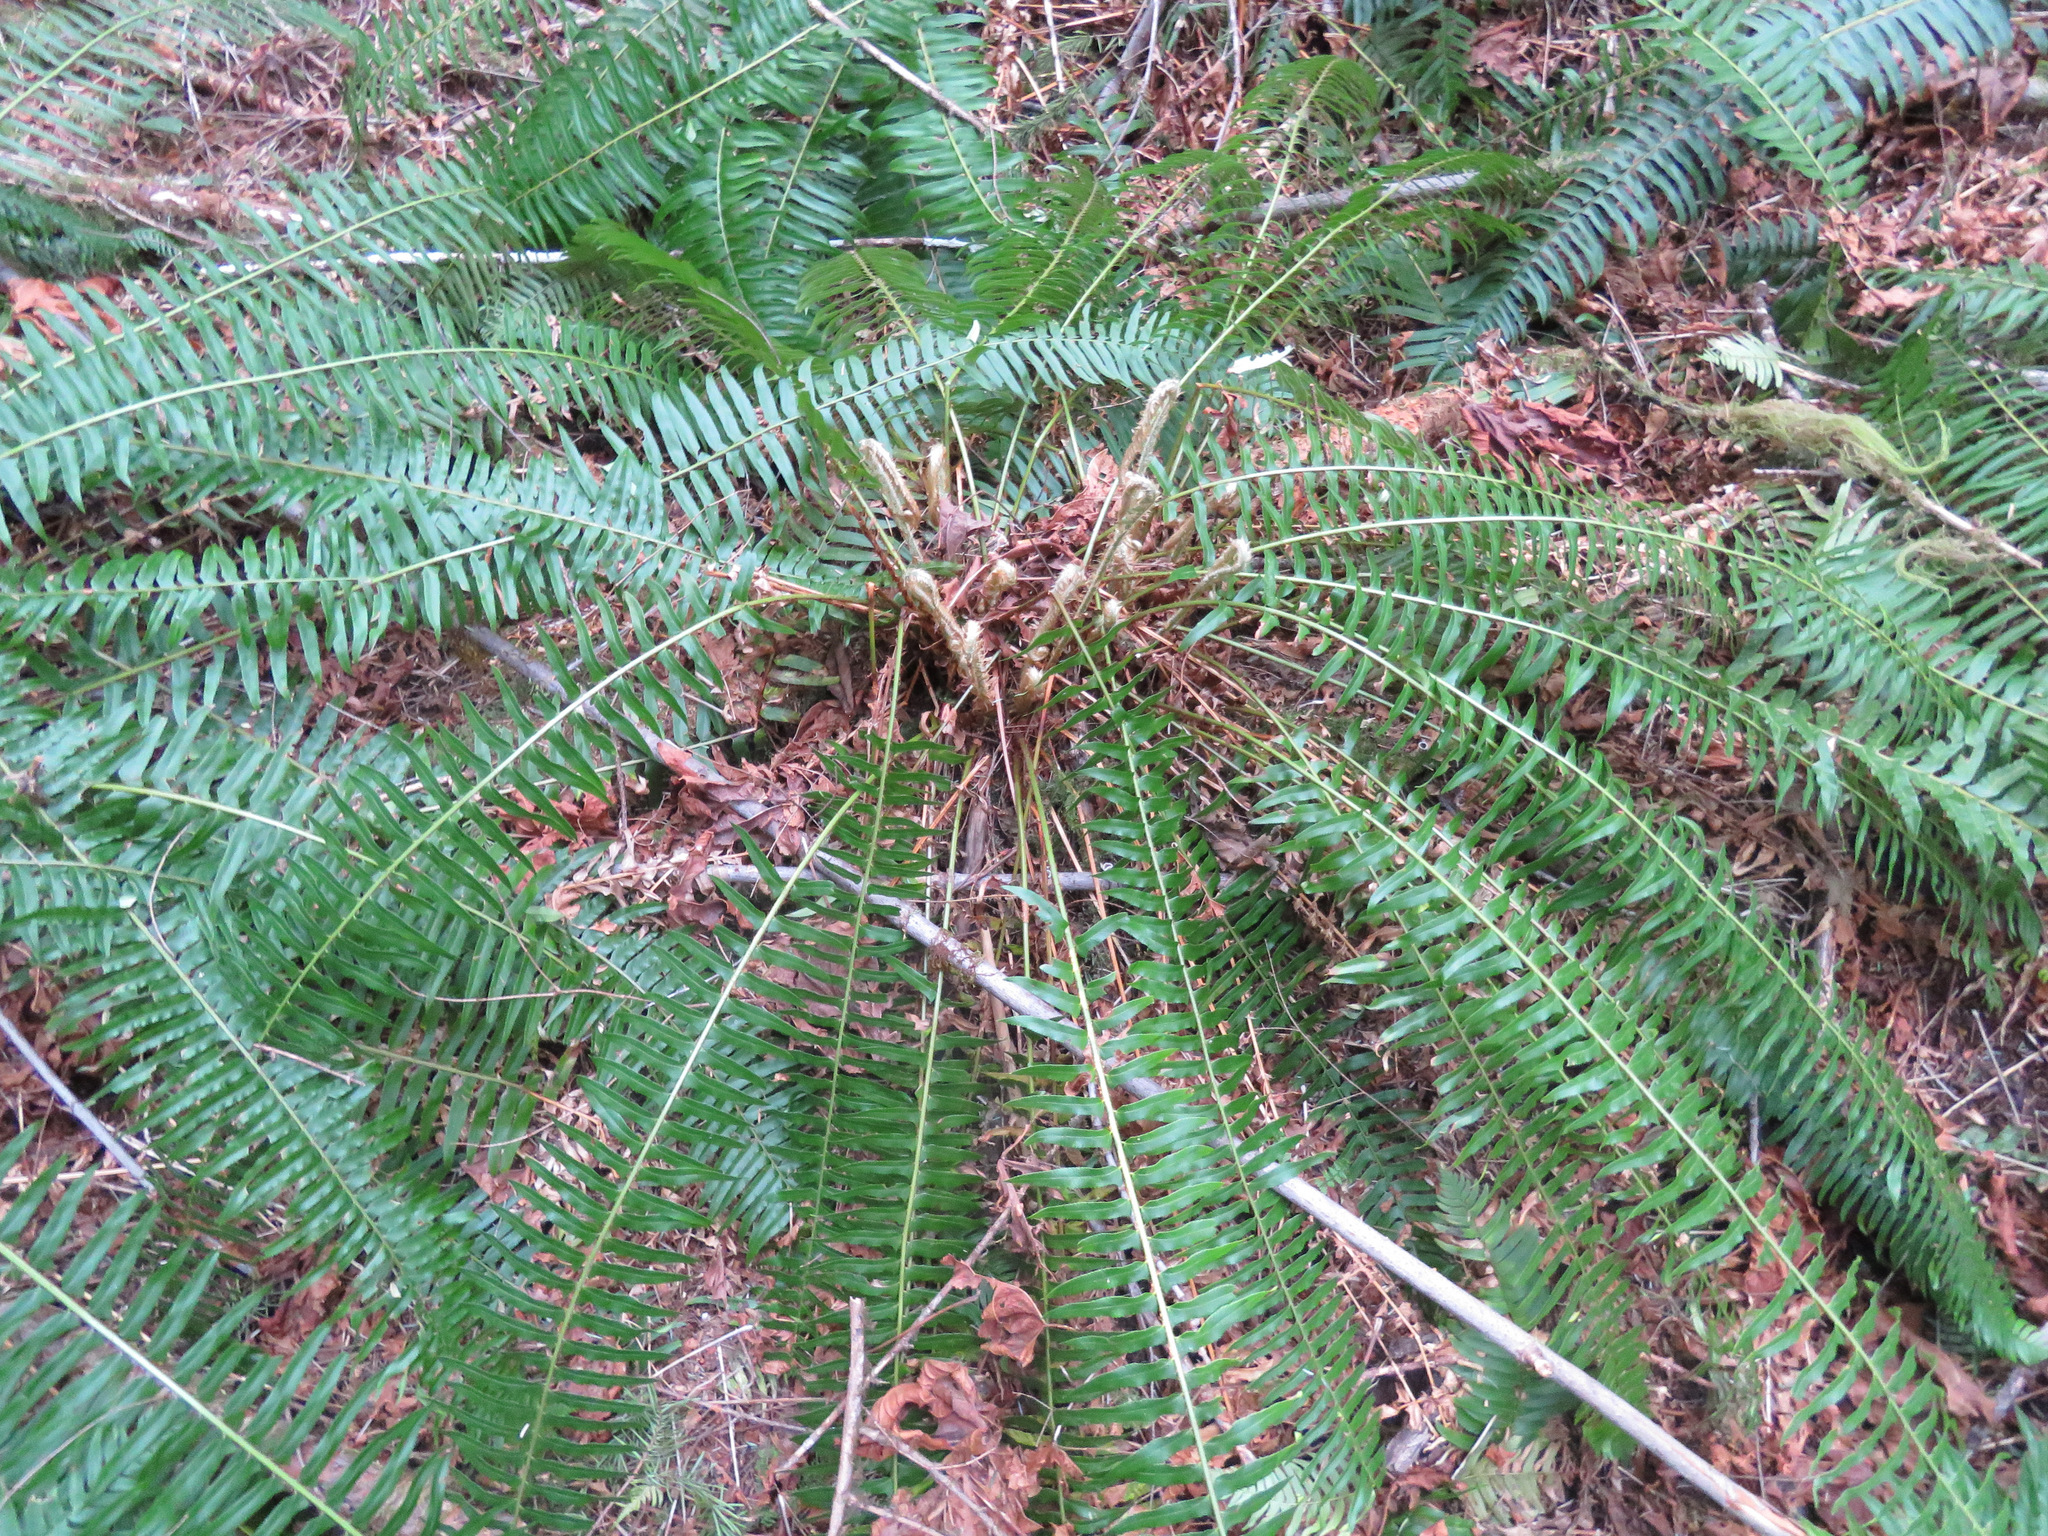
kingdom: Plantae
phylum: Tracheophyta
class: Polypodiopsida
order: Polypodiales
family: Dryopteridaceae
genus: Polystichum
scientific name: Polystichum munitum
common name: Western sword-fern
